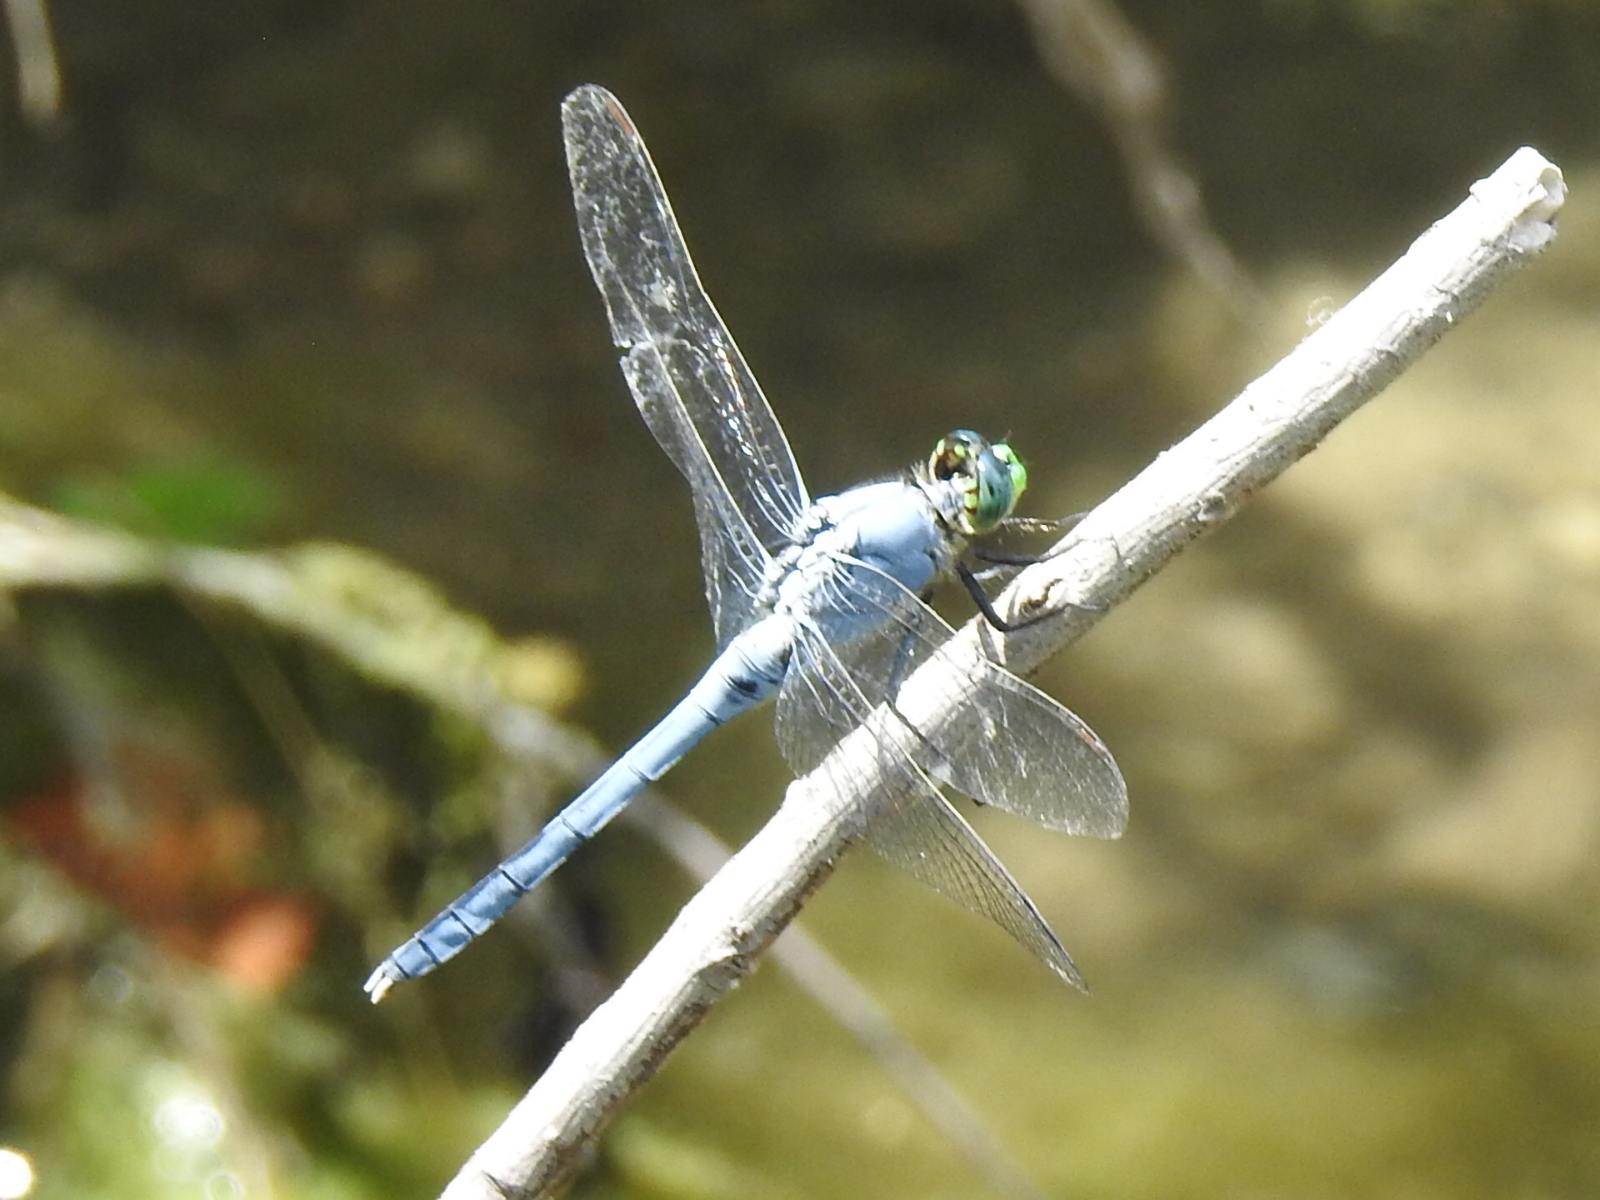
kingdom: Animalia
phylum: Arthropoda
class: Insecta
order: Odonata
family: Libellulidae
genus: Erythemis
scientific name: Erythemis simplicicollis
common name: Eastern pondhawk
